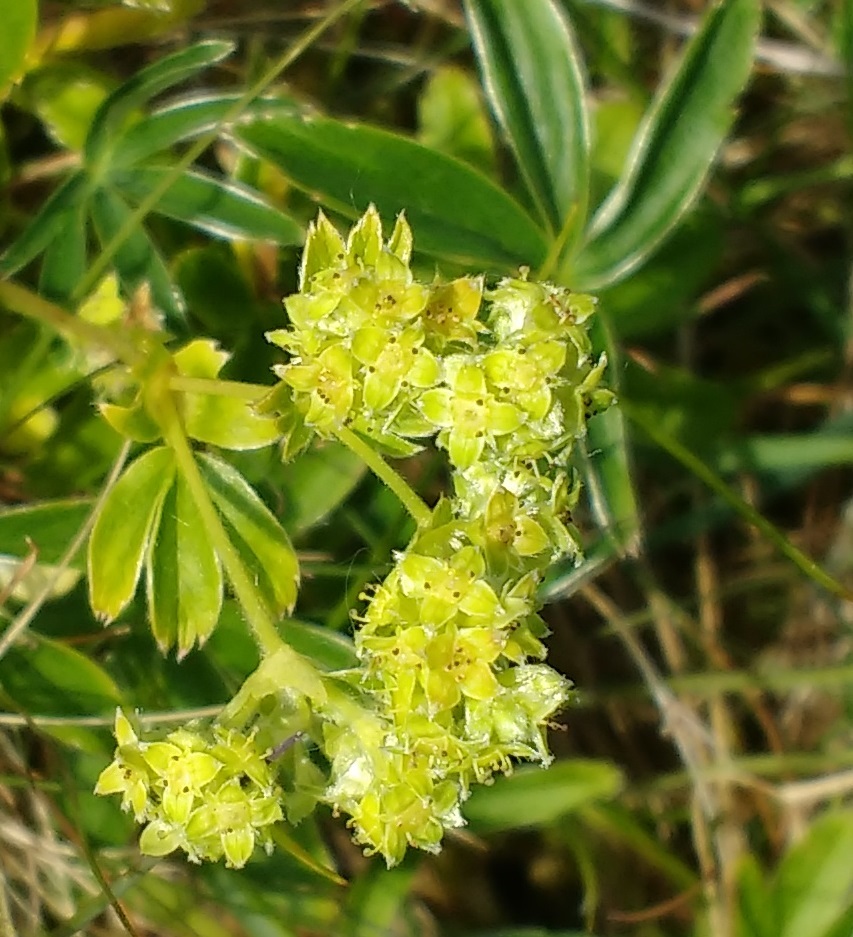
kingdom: Plantae
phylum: Tracheophyta
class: Magnoliopsida
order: Rosales
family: Rosaceae
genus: Alchemilla
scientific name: Alchemilla alpina
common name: Alpine lady's-mantle
